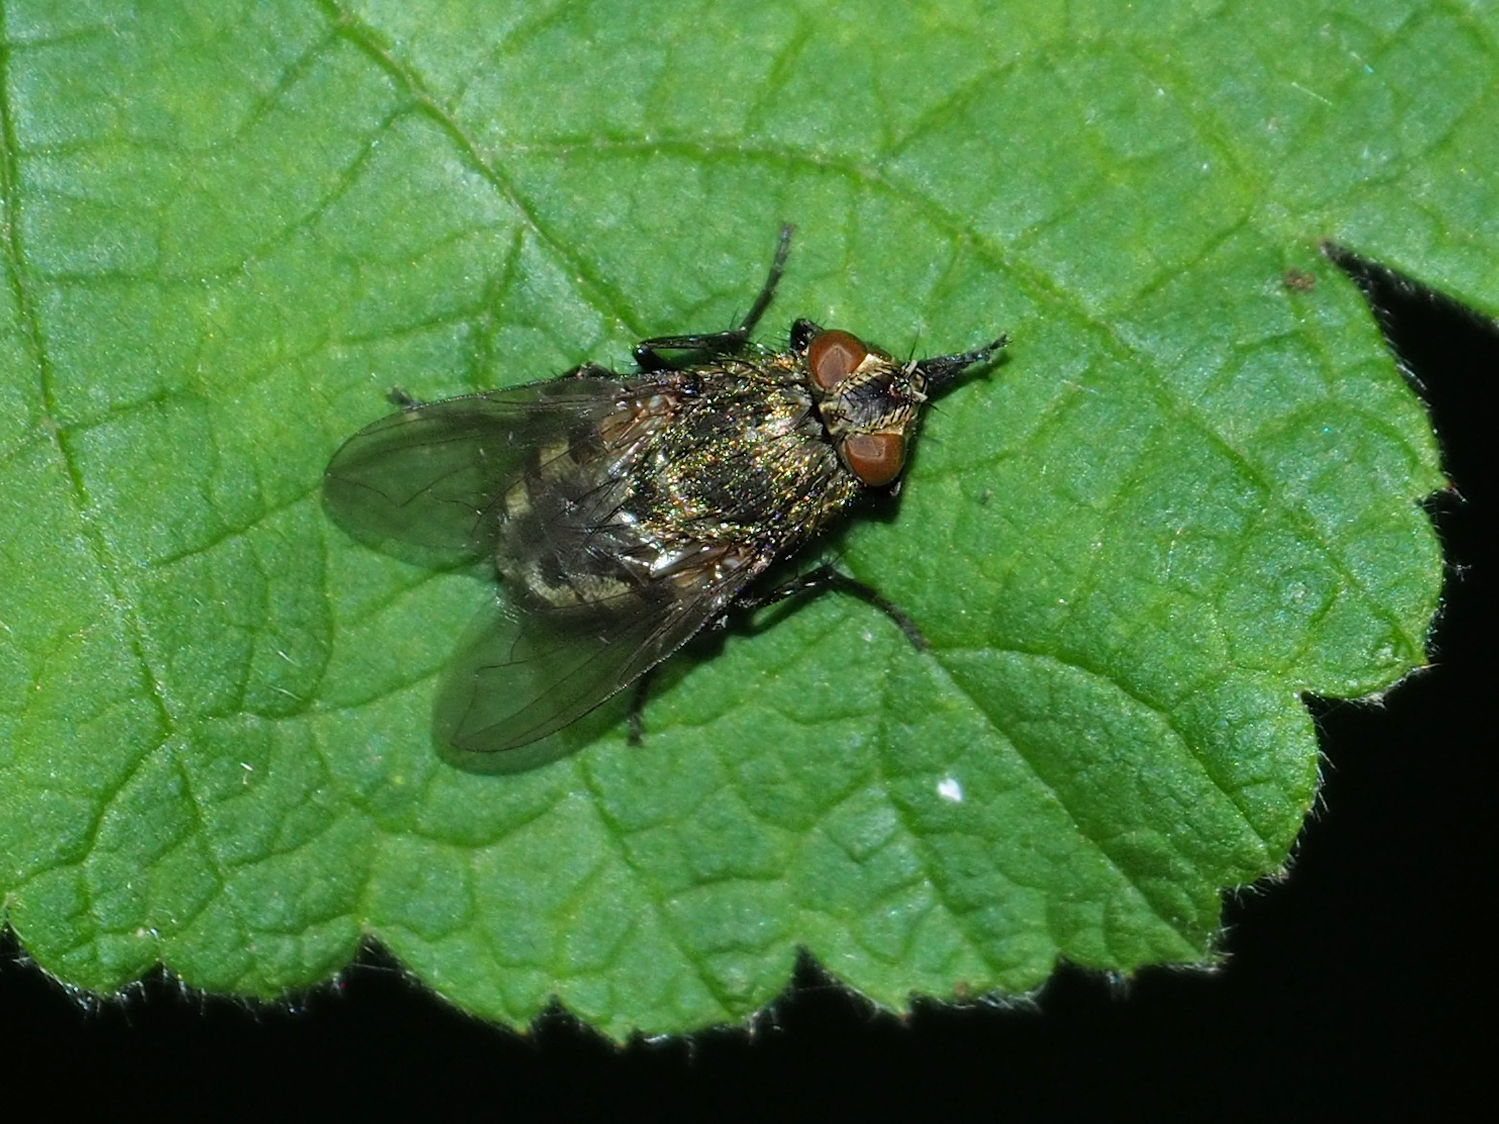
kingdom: Animalia
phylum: Arthropoda
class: Insecta
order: Diptera
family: Polleniidae
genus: Pollenia
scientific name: Pollenia
